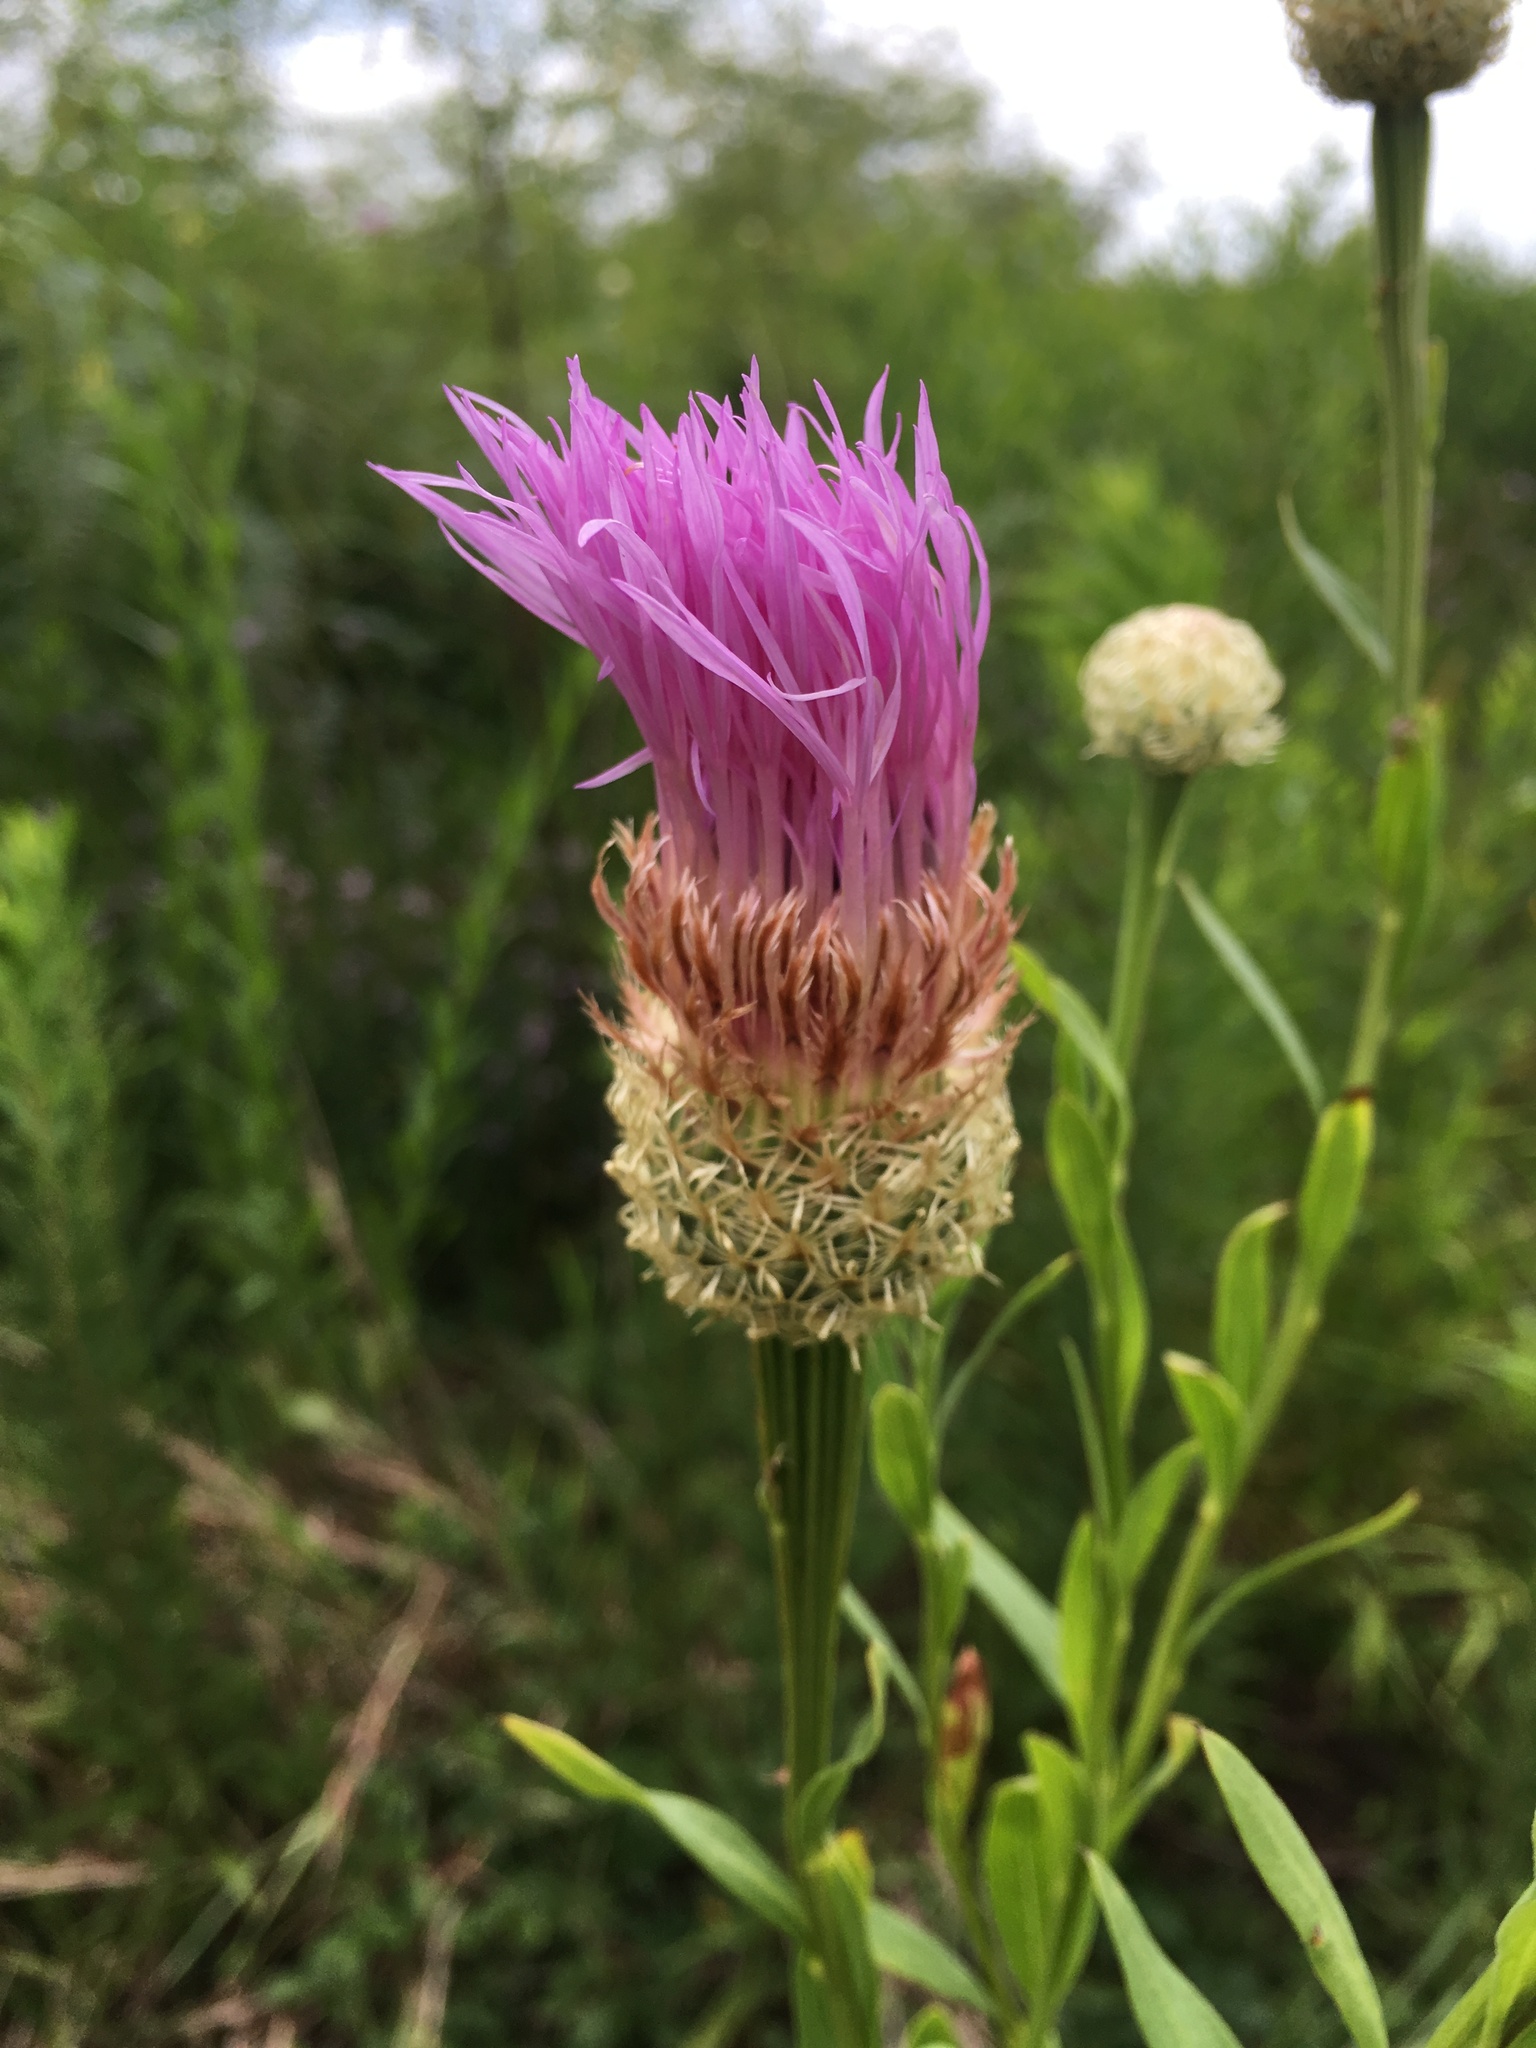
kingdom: Plantae
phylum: Tracheophyta
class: Magnoliopsida
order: Asterales
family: Asteraceae
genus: Plectocephalus
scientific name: Plectocephalus americanus
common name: American basket-flower
